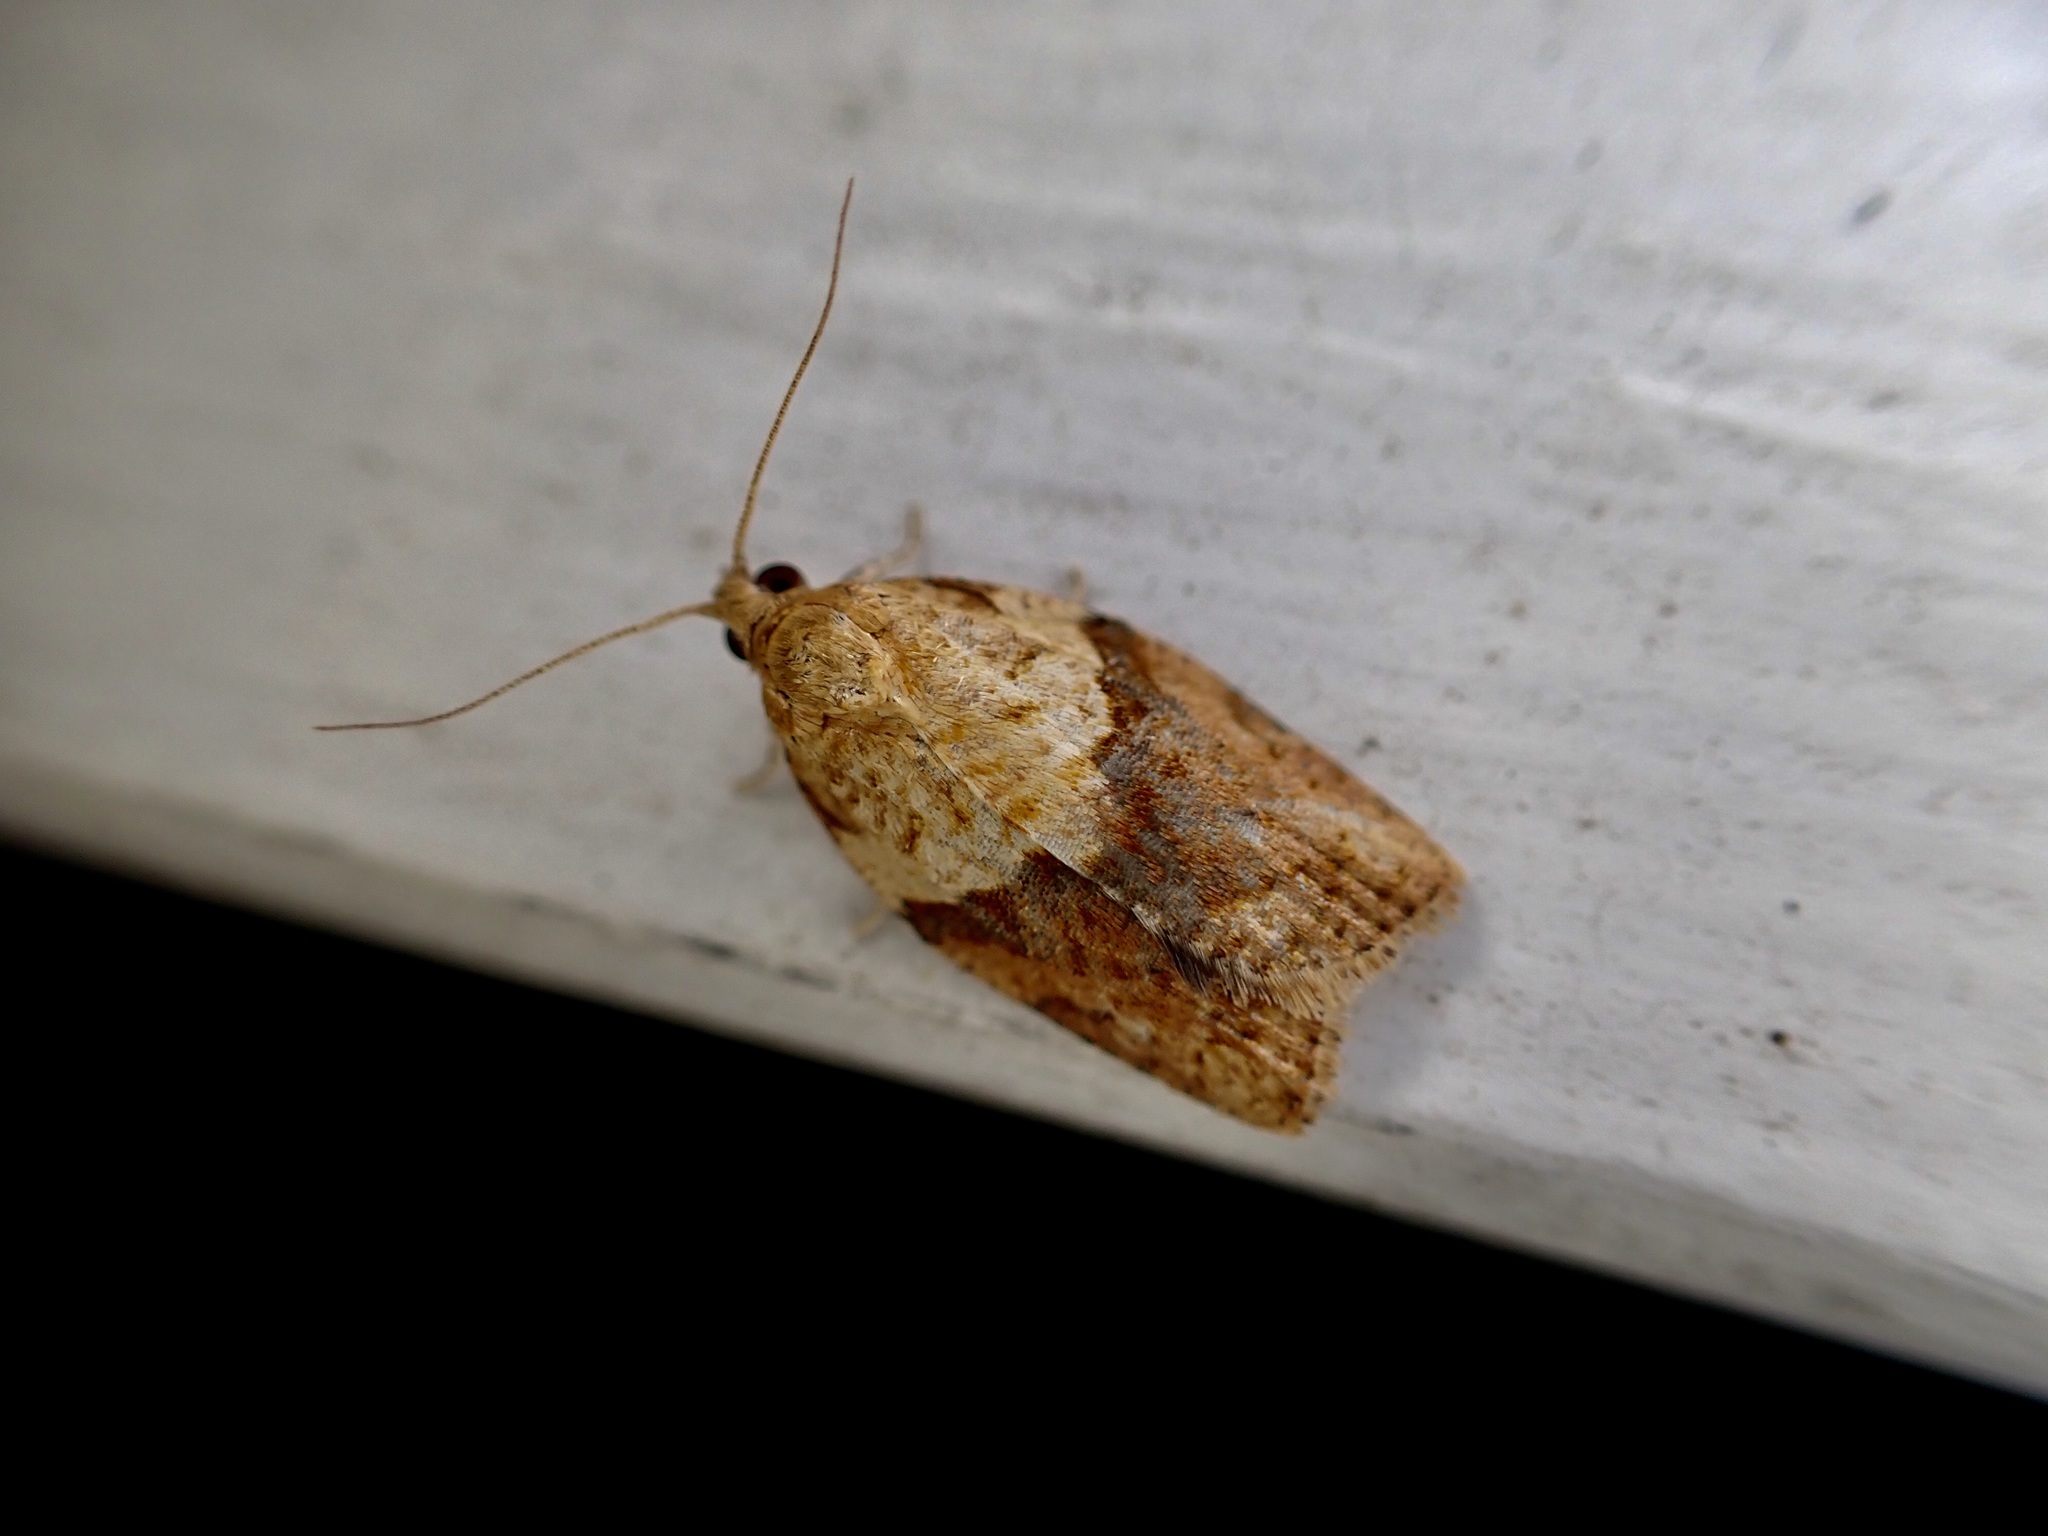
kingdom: Animalia
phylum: Arthropoda
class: Insecta
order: Lepidoptera
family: Tortricidae
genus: Epiphyas
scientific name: Epiphyas postvittana
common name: Light brown apple moth
